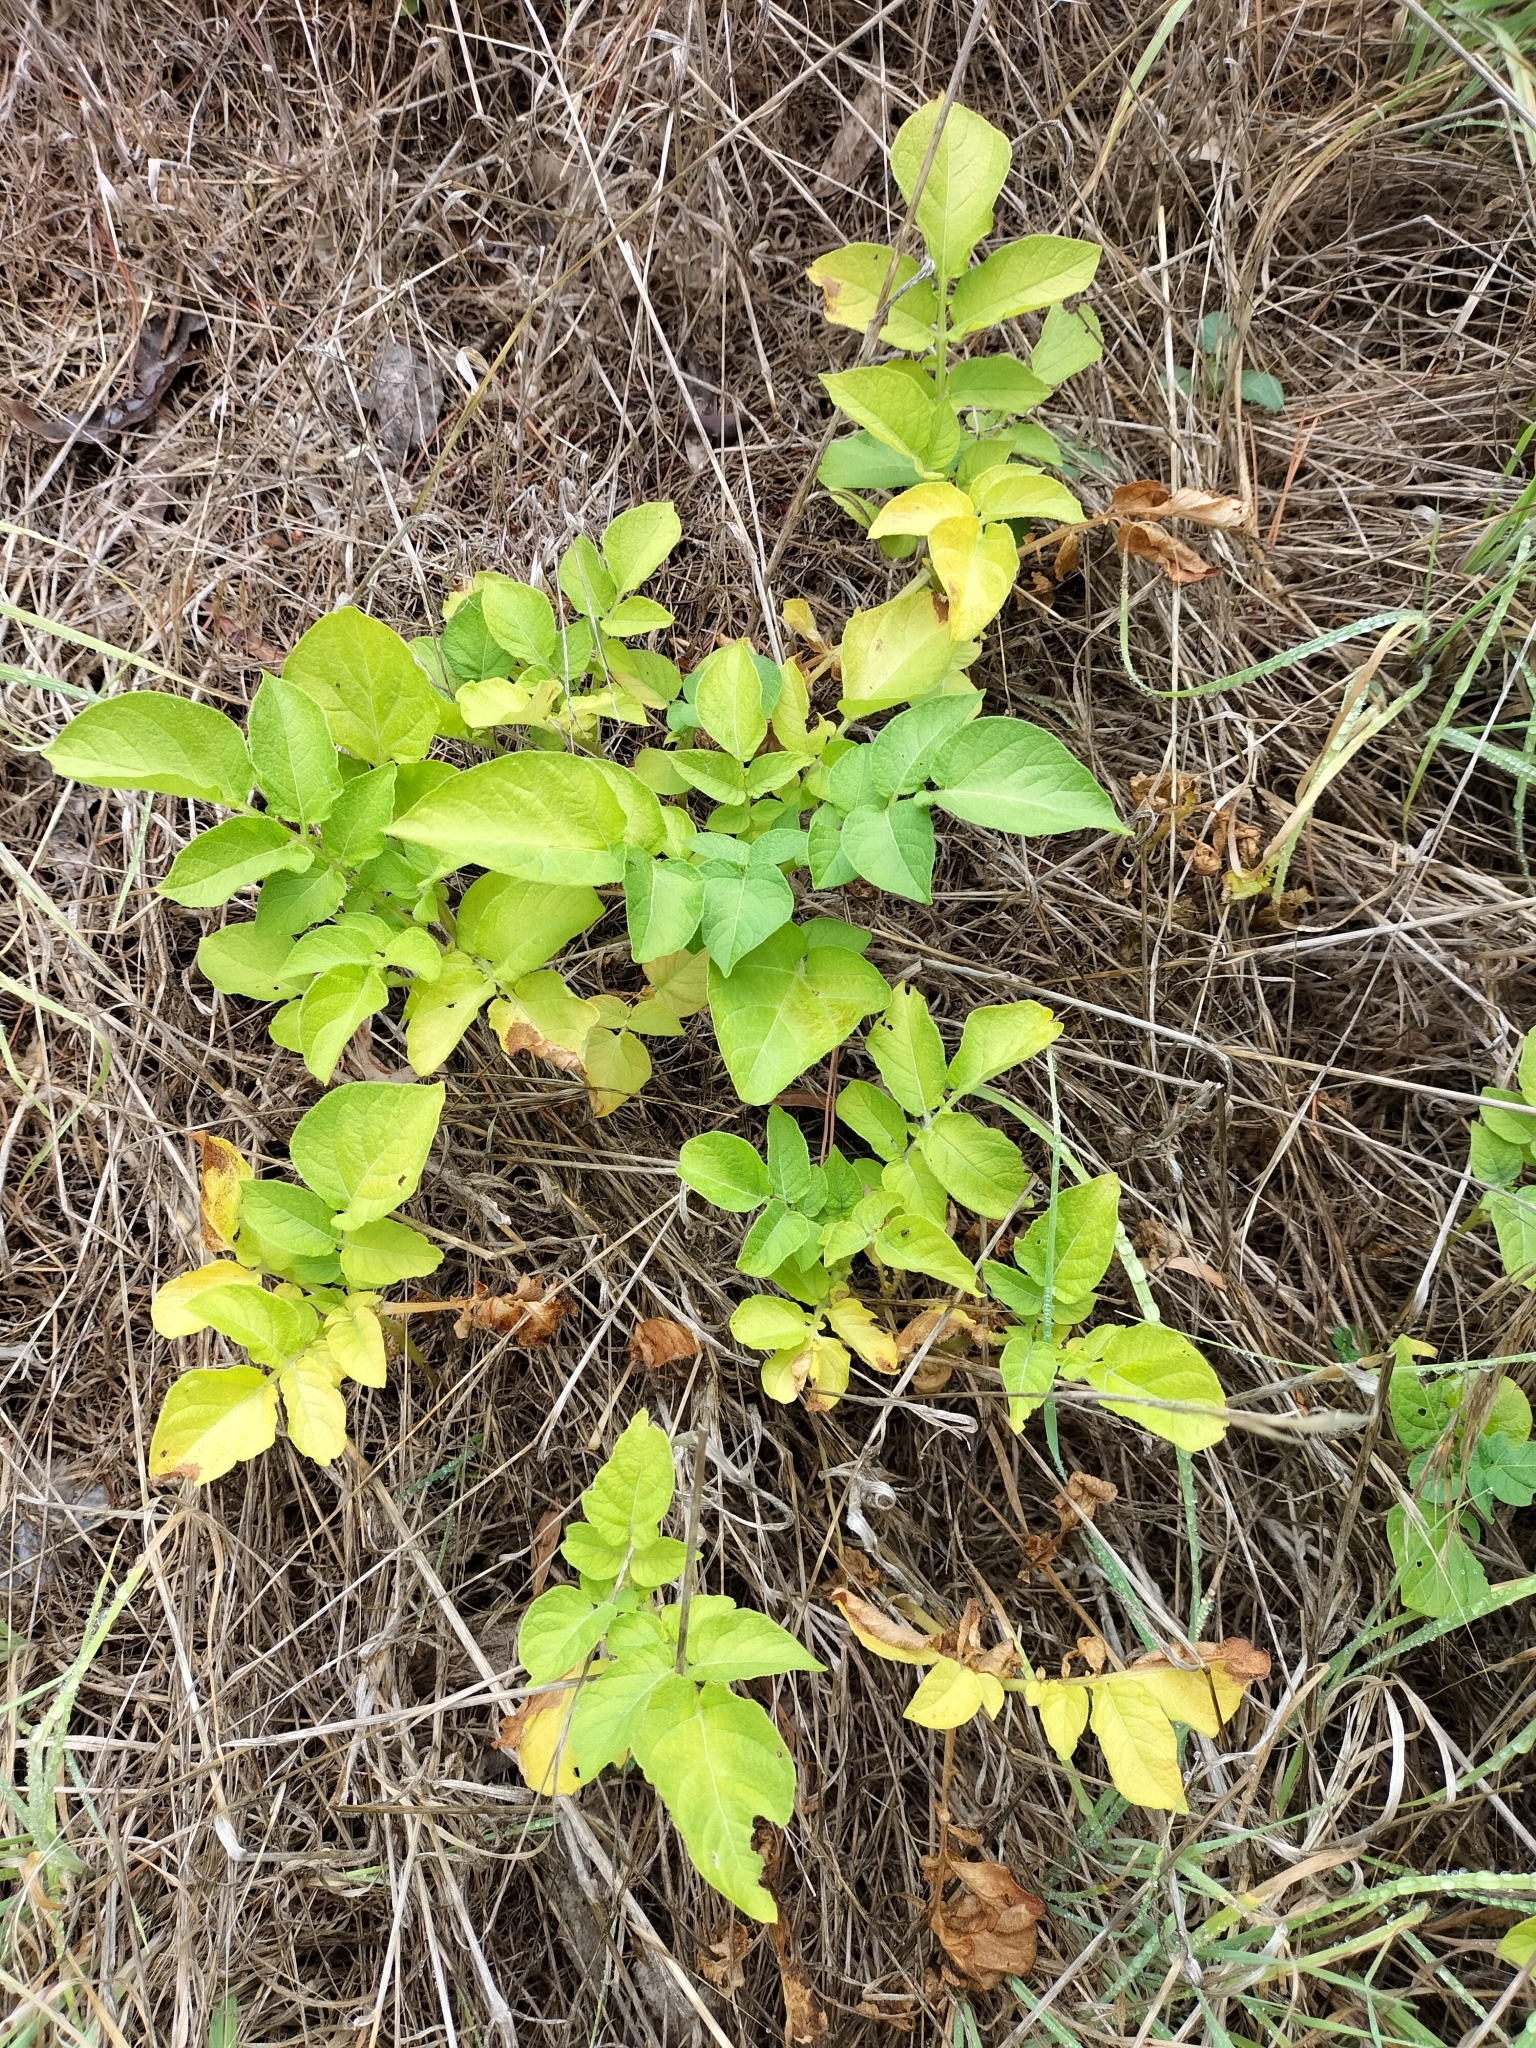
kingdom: Plantae
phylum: Tracheophyta
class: Magnoliopsida
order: Solanales
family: Solanaceae
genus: Solanum
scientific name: Solanum tuberosum
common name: Potato
